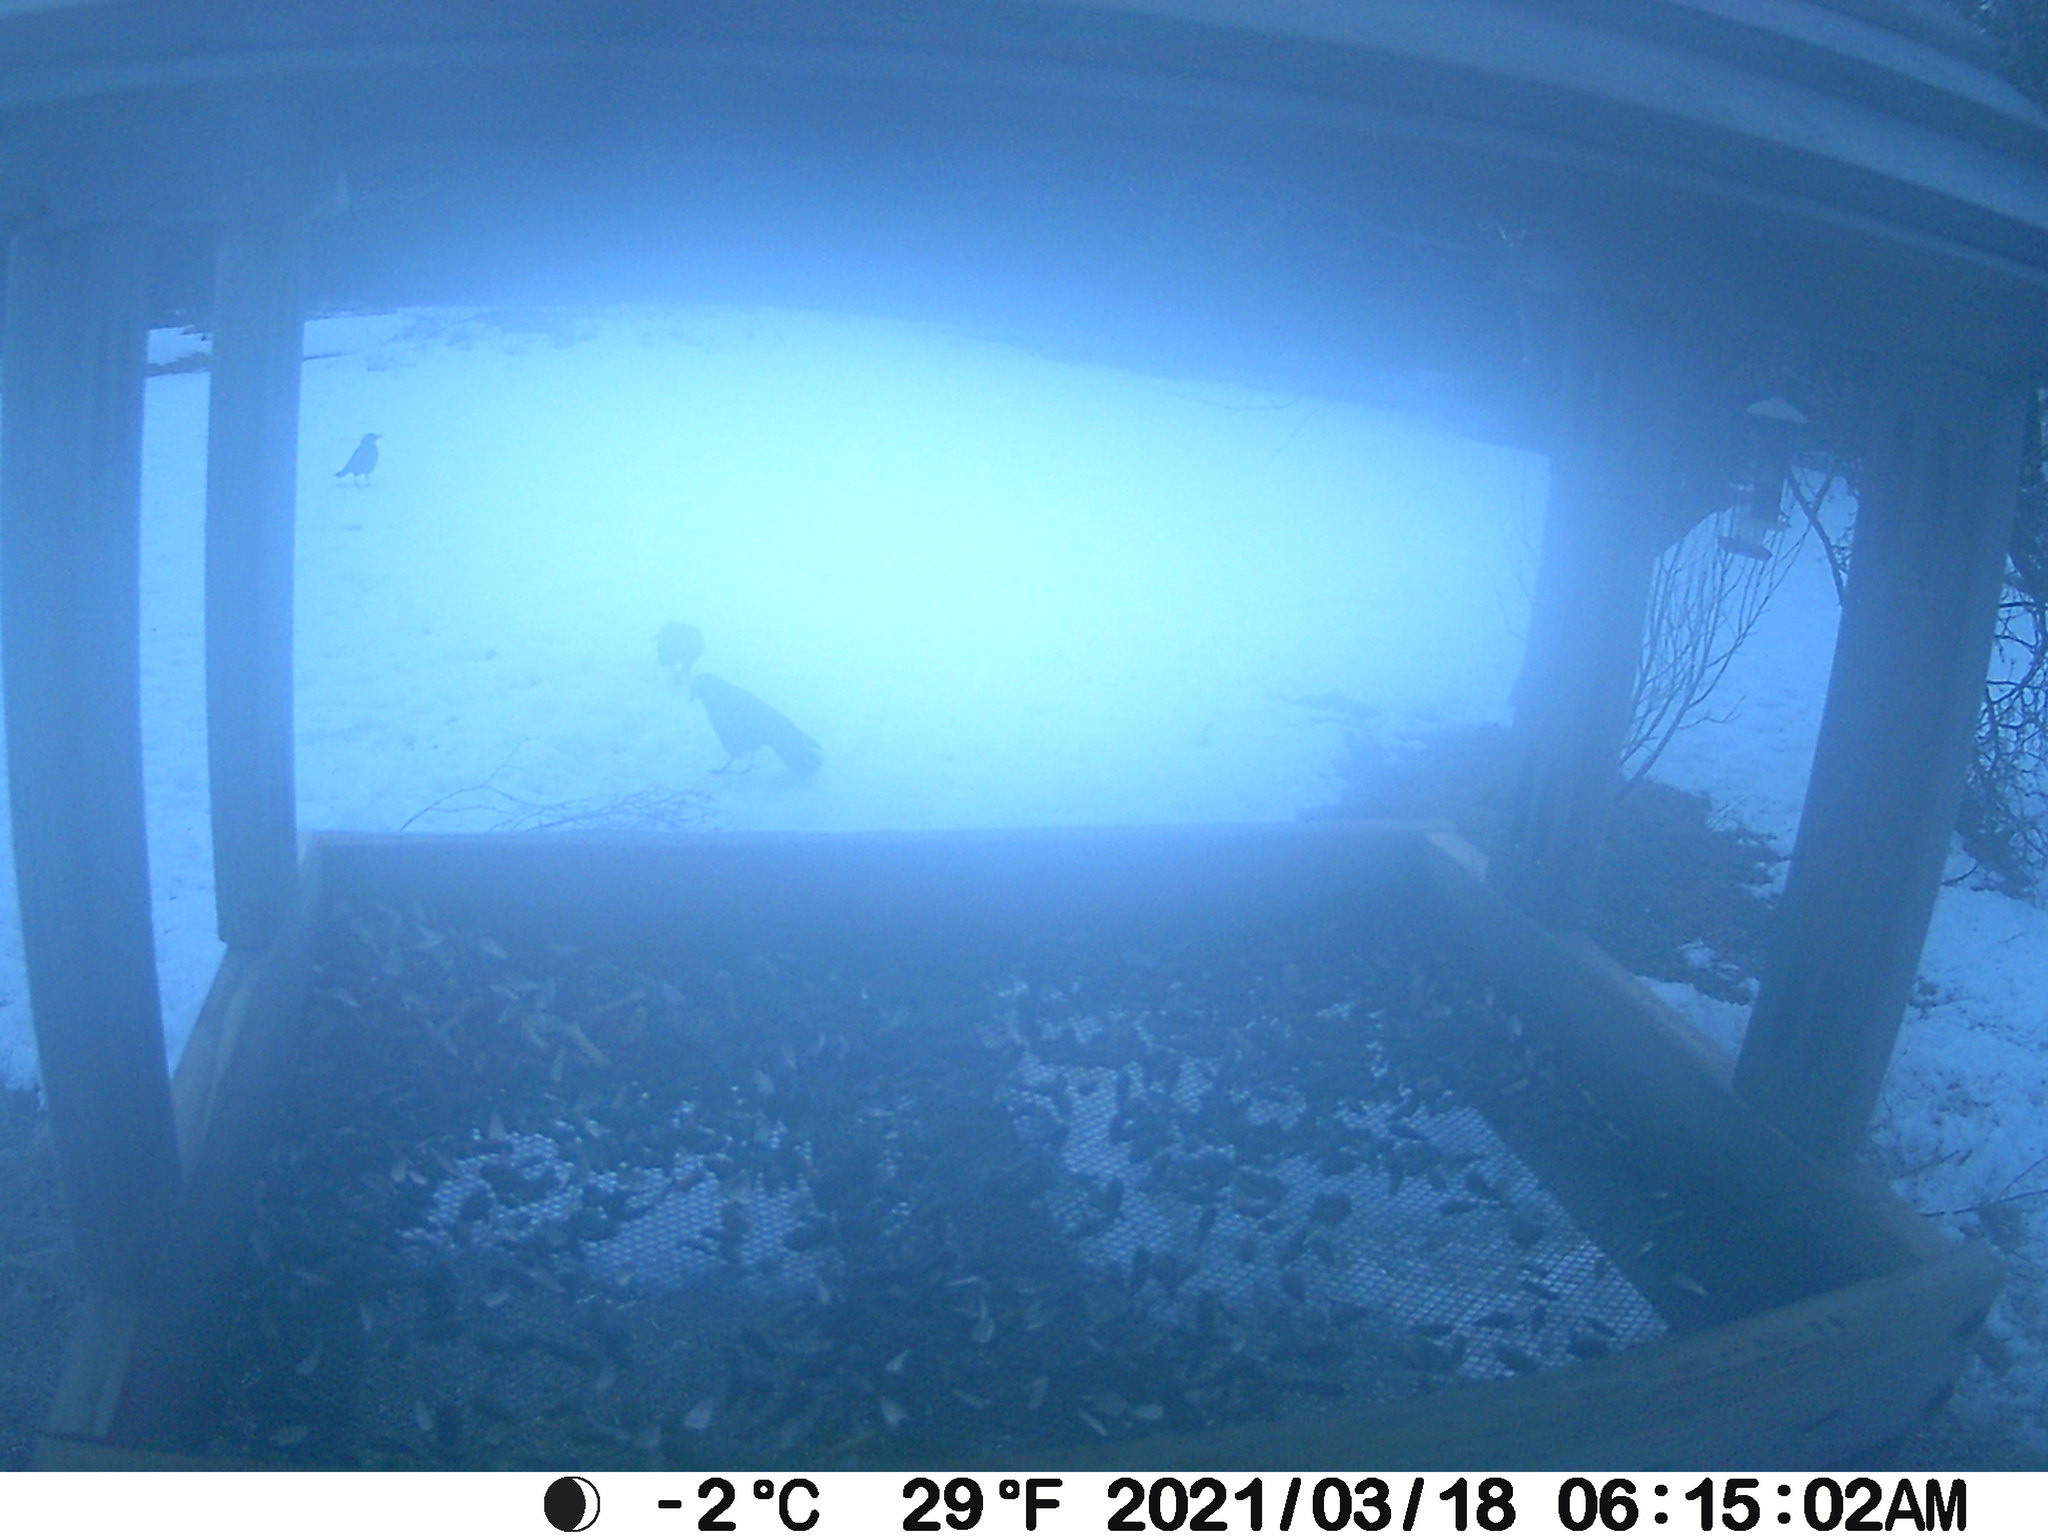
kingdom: Animalia
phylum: Chordata
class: Aves
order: Passeriformes
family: Corvidae
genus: Corvus
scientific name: Corvus brachyrhynchos
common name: American crow
